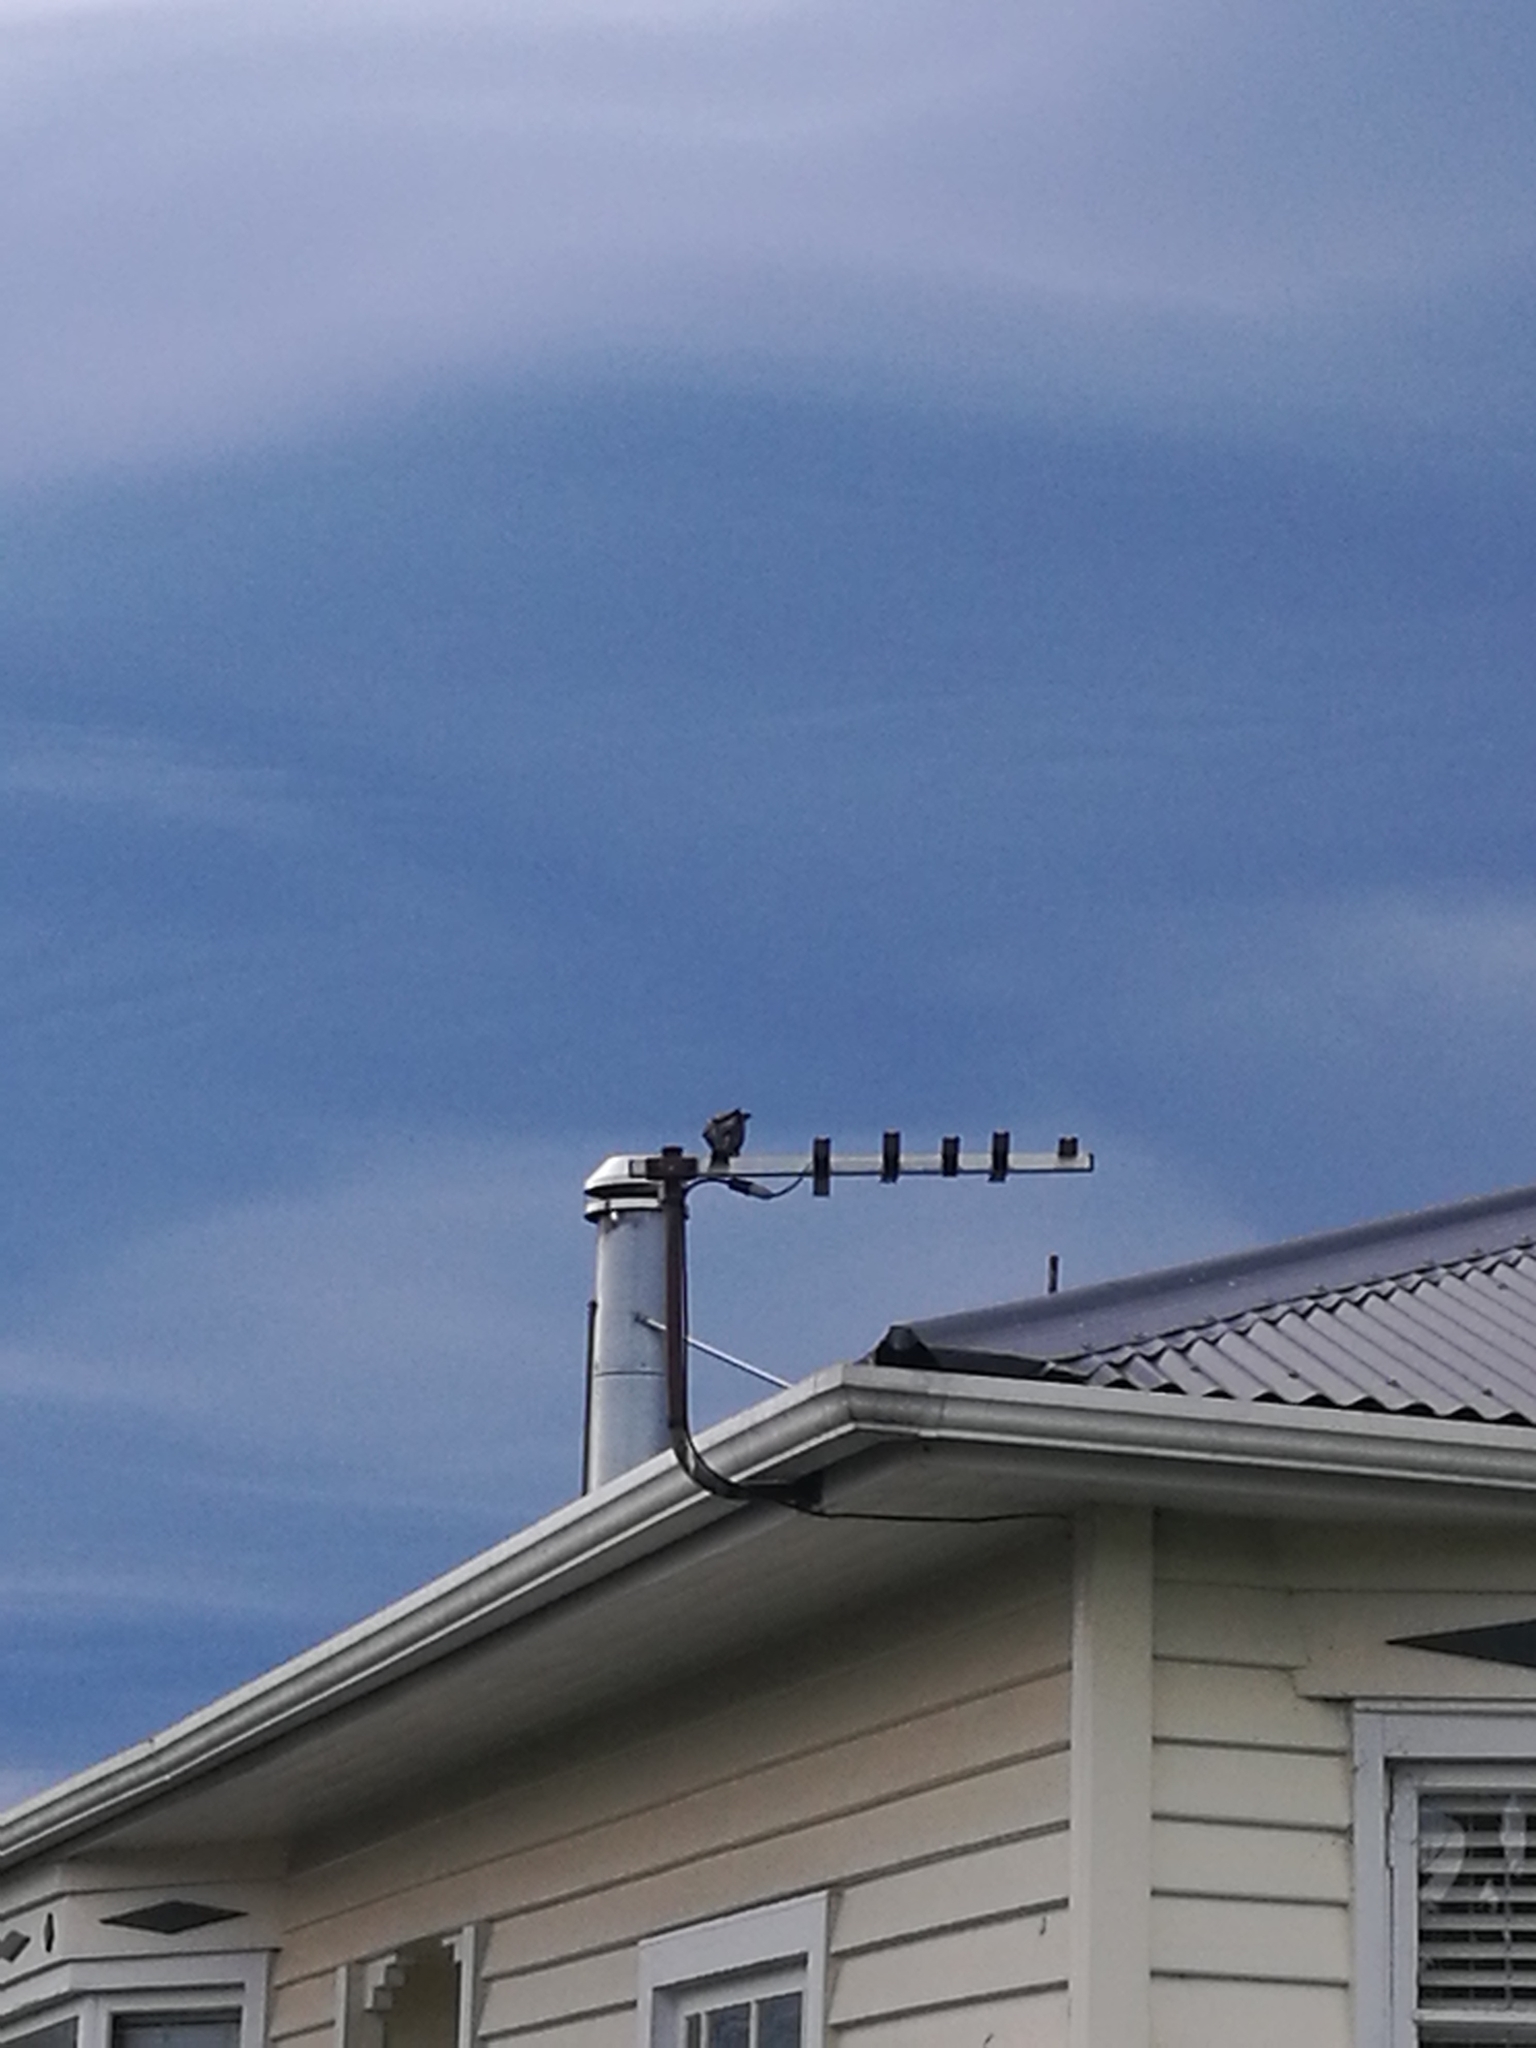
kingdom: Animalia
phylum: Chordata
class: Aves
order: Passeriformes
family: Sturnidae
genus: Sturnus
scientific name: Sturnus vulgaris
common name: Common starling
